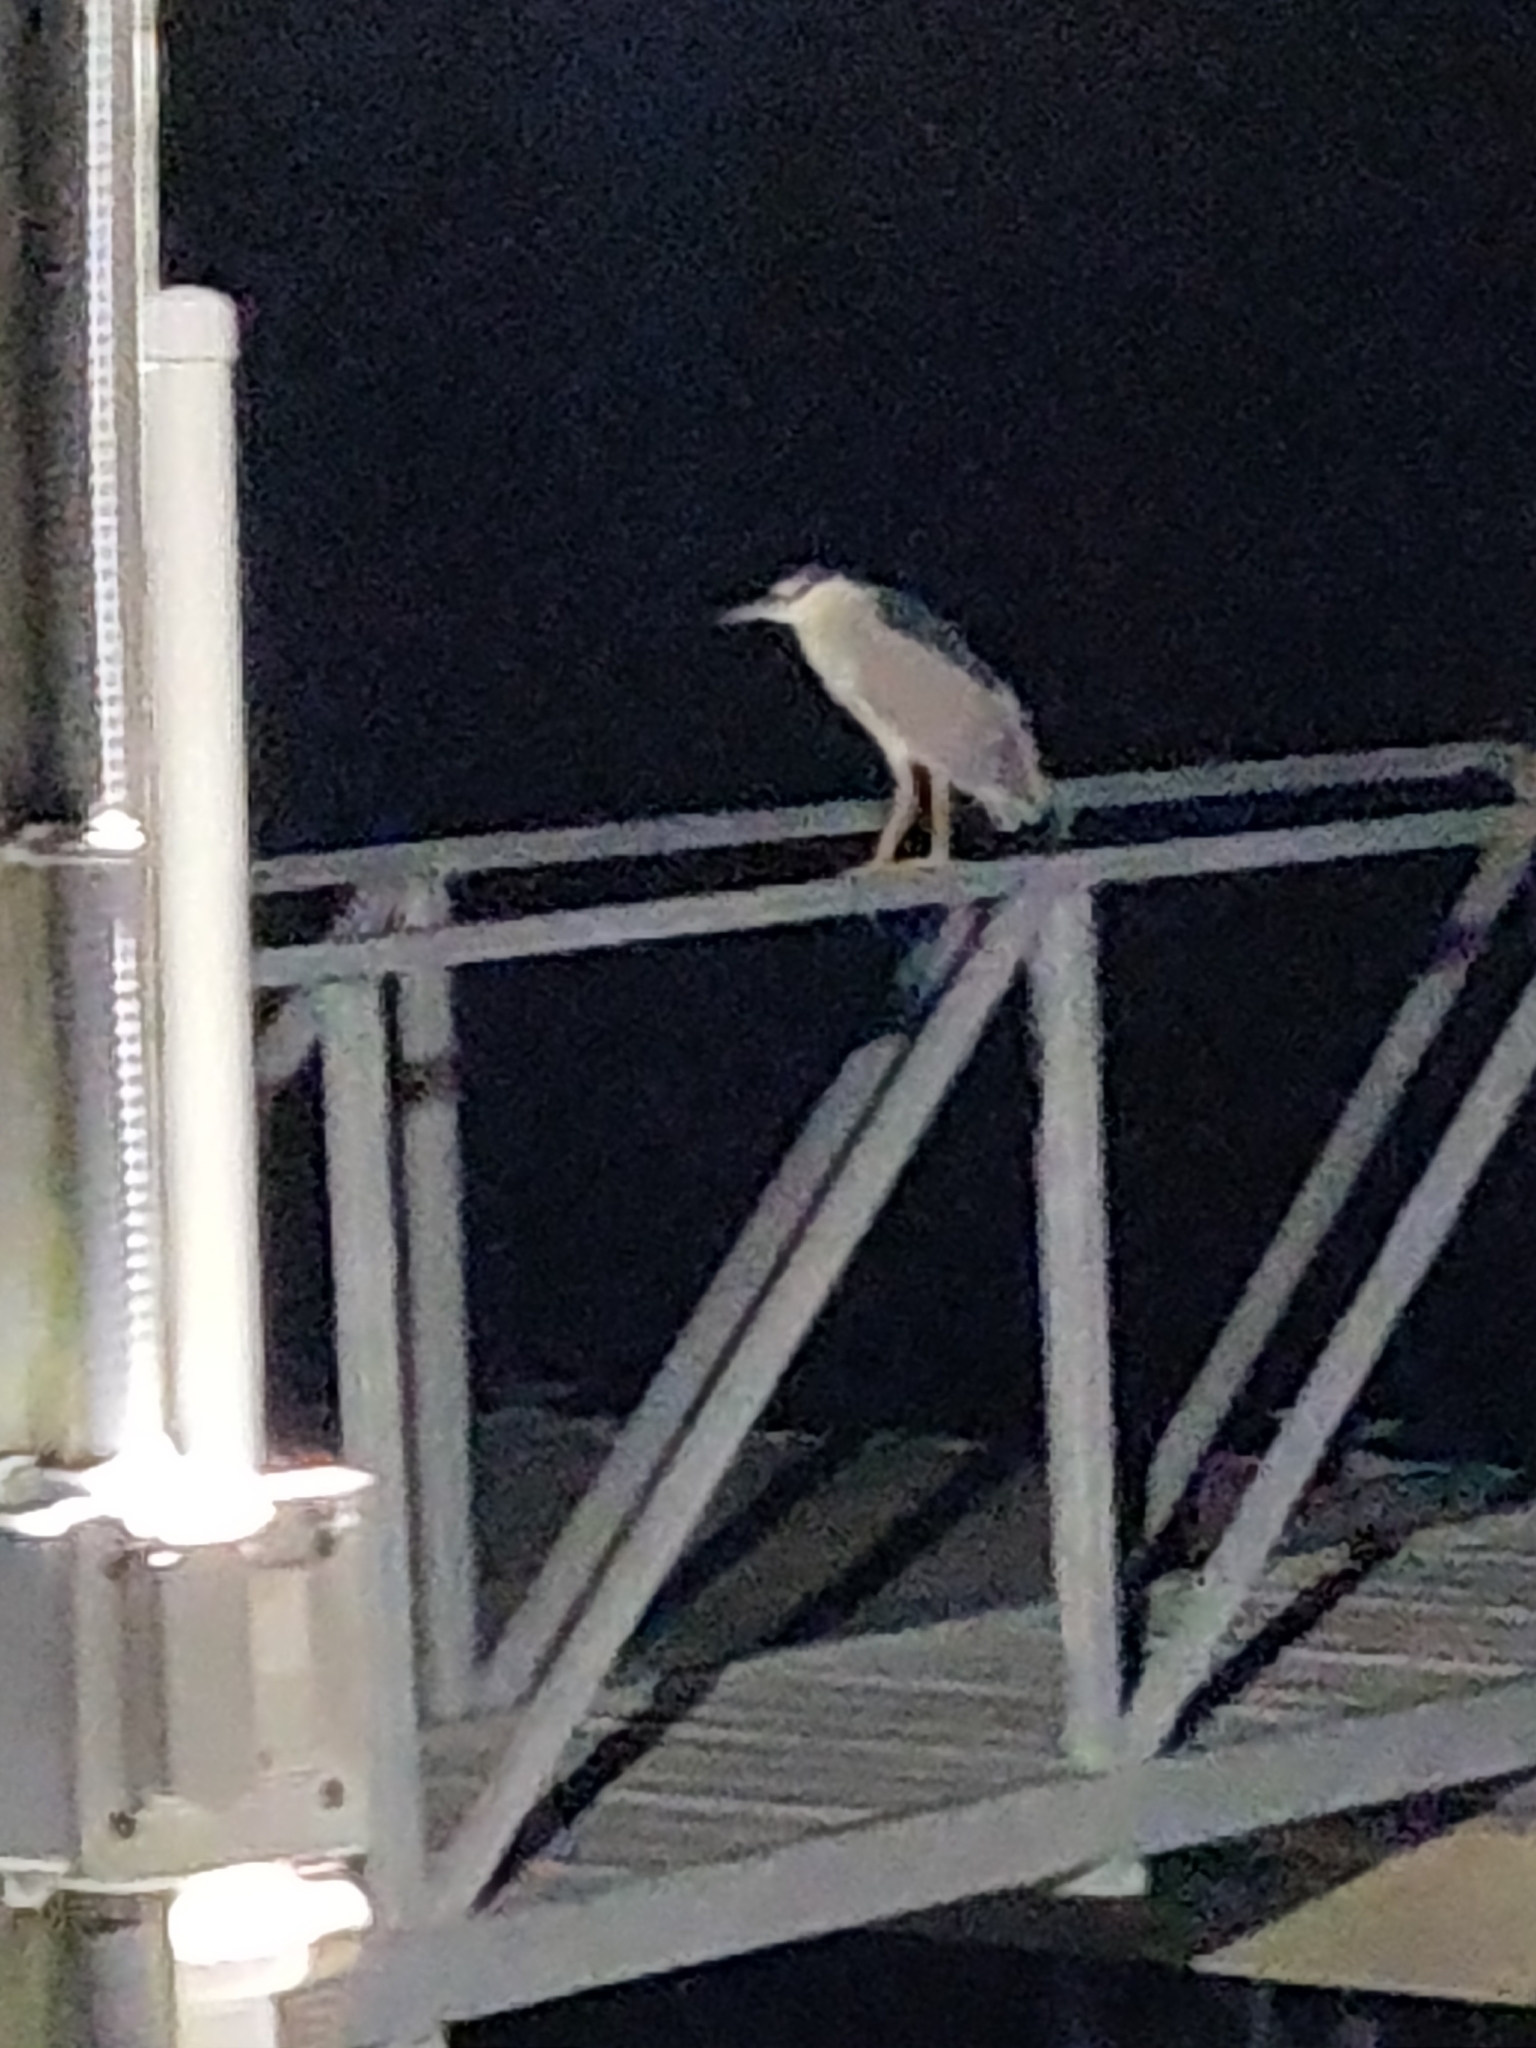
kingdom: Animalia
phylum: Chordata
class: Aves
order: Pelecaniformes
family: Ardeidae
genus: Nycticorax
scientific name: Nycticorax nycticorax
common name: Black-crowned night heron
